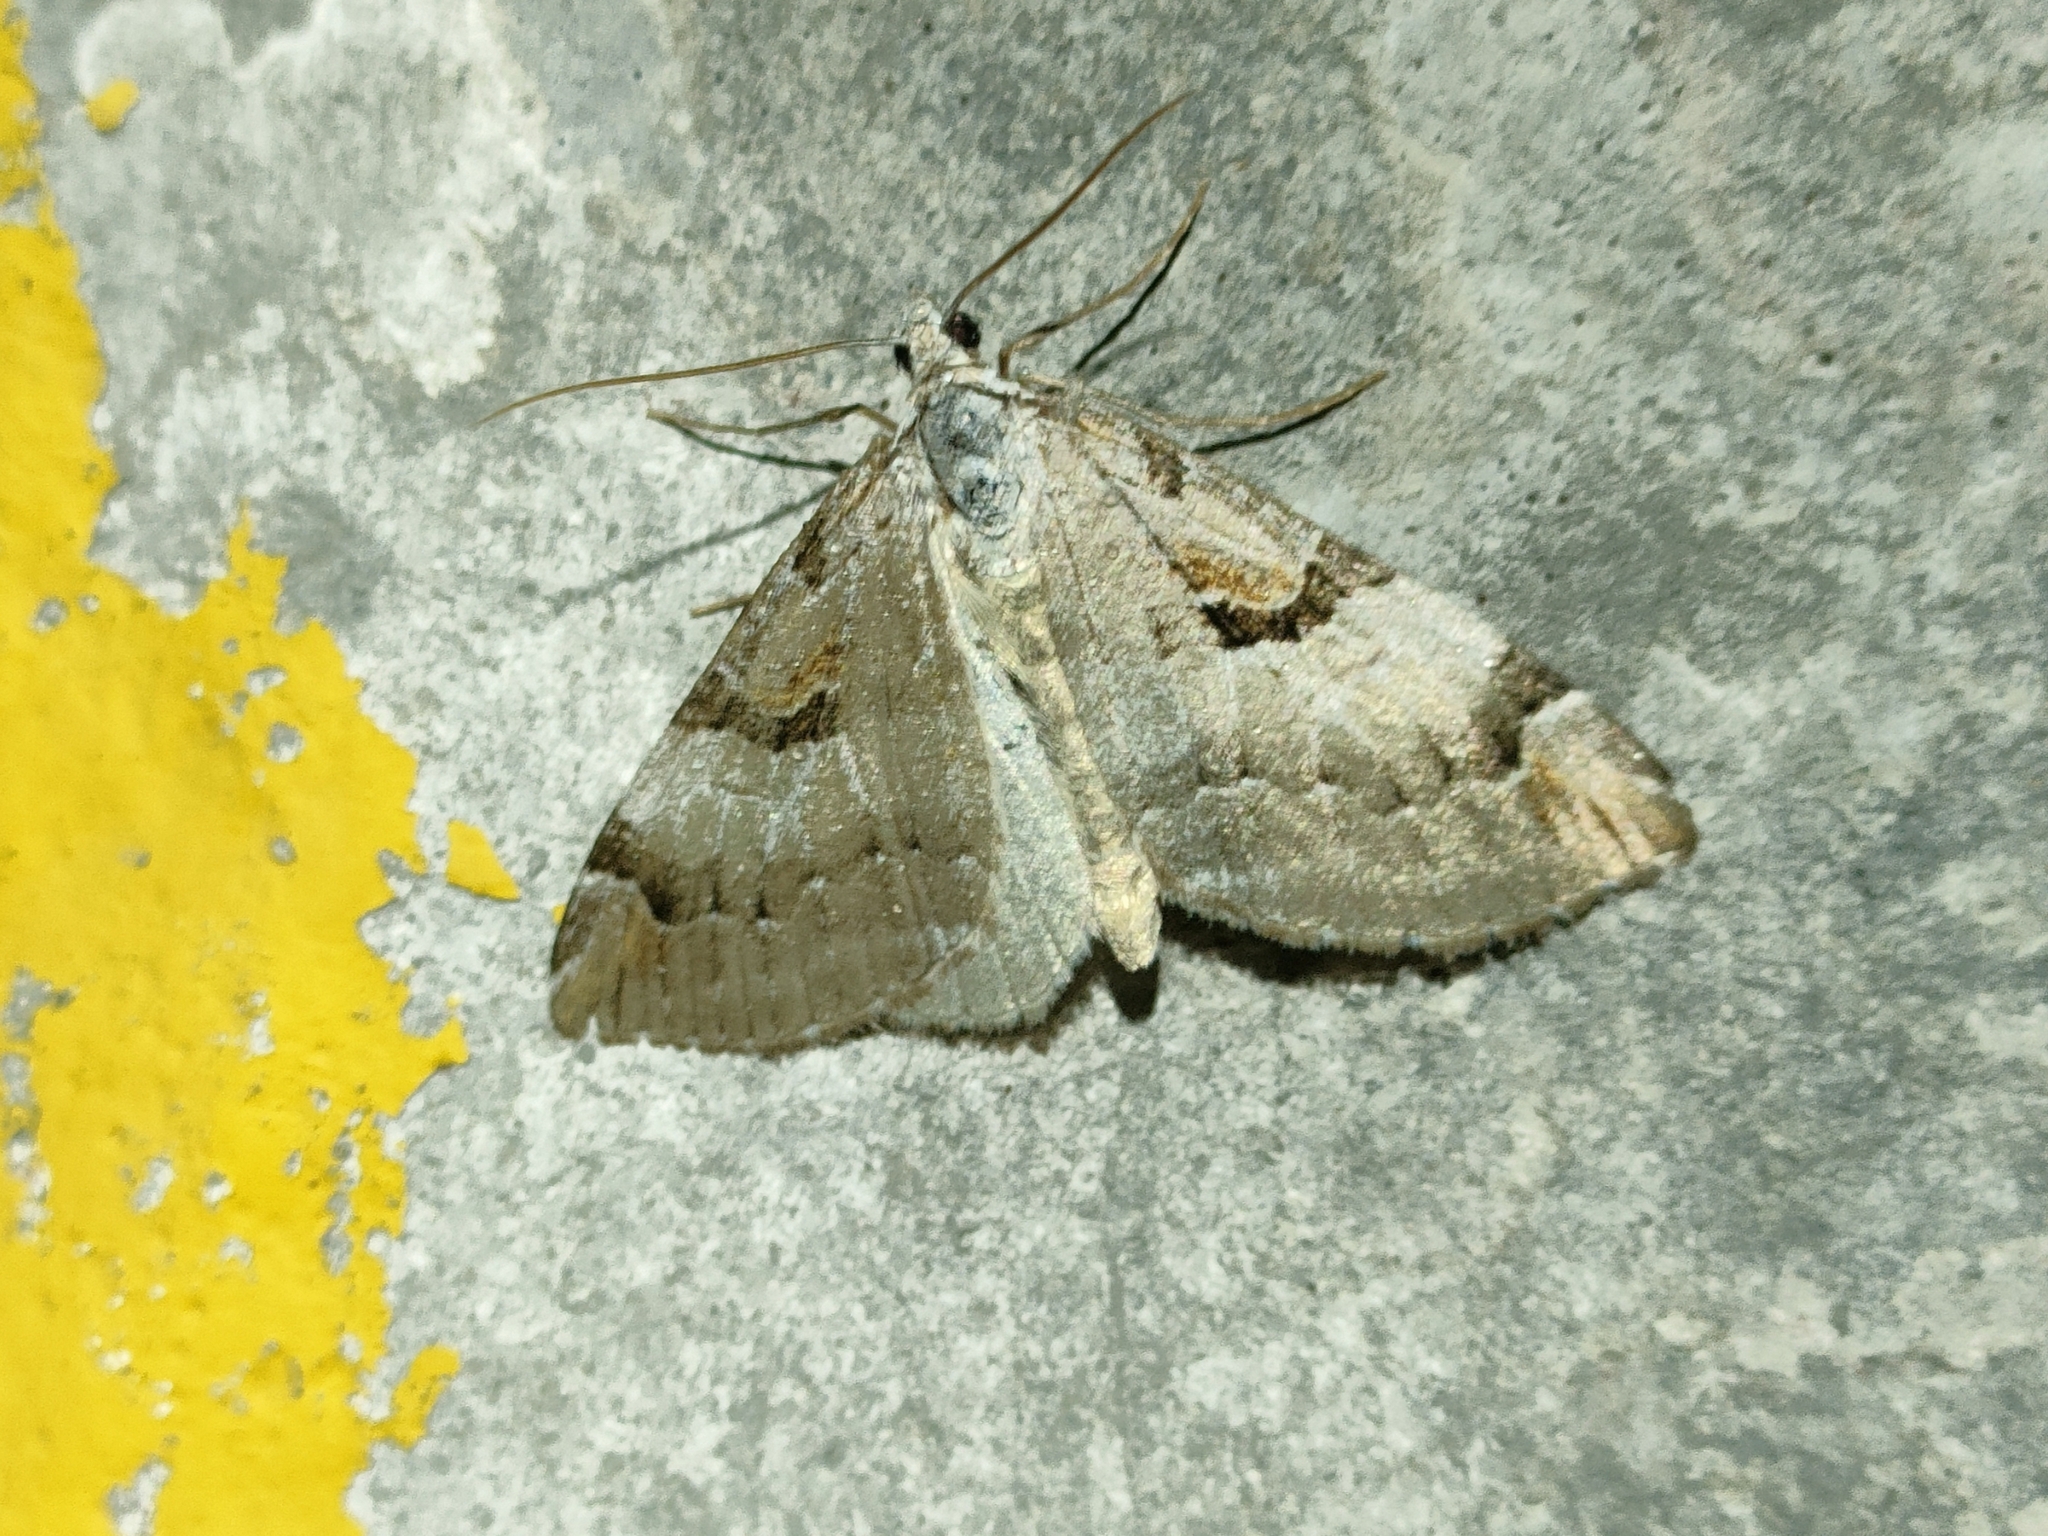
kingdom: Animalia
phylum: Arthropoda
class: Insecta
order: Lepidoptera
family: Geometridae
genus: Aplocera
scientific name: Aplocera praeformata
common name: Purple treble-bar
